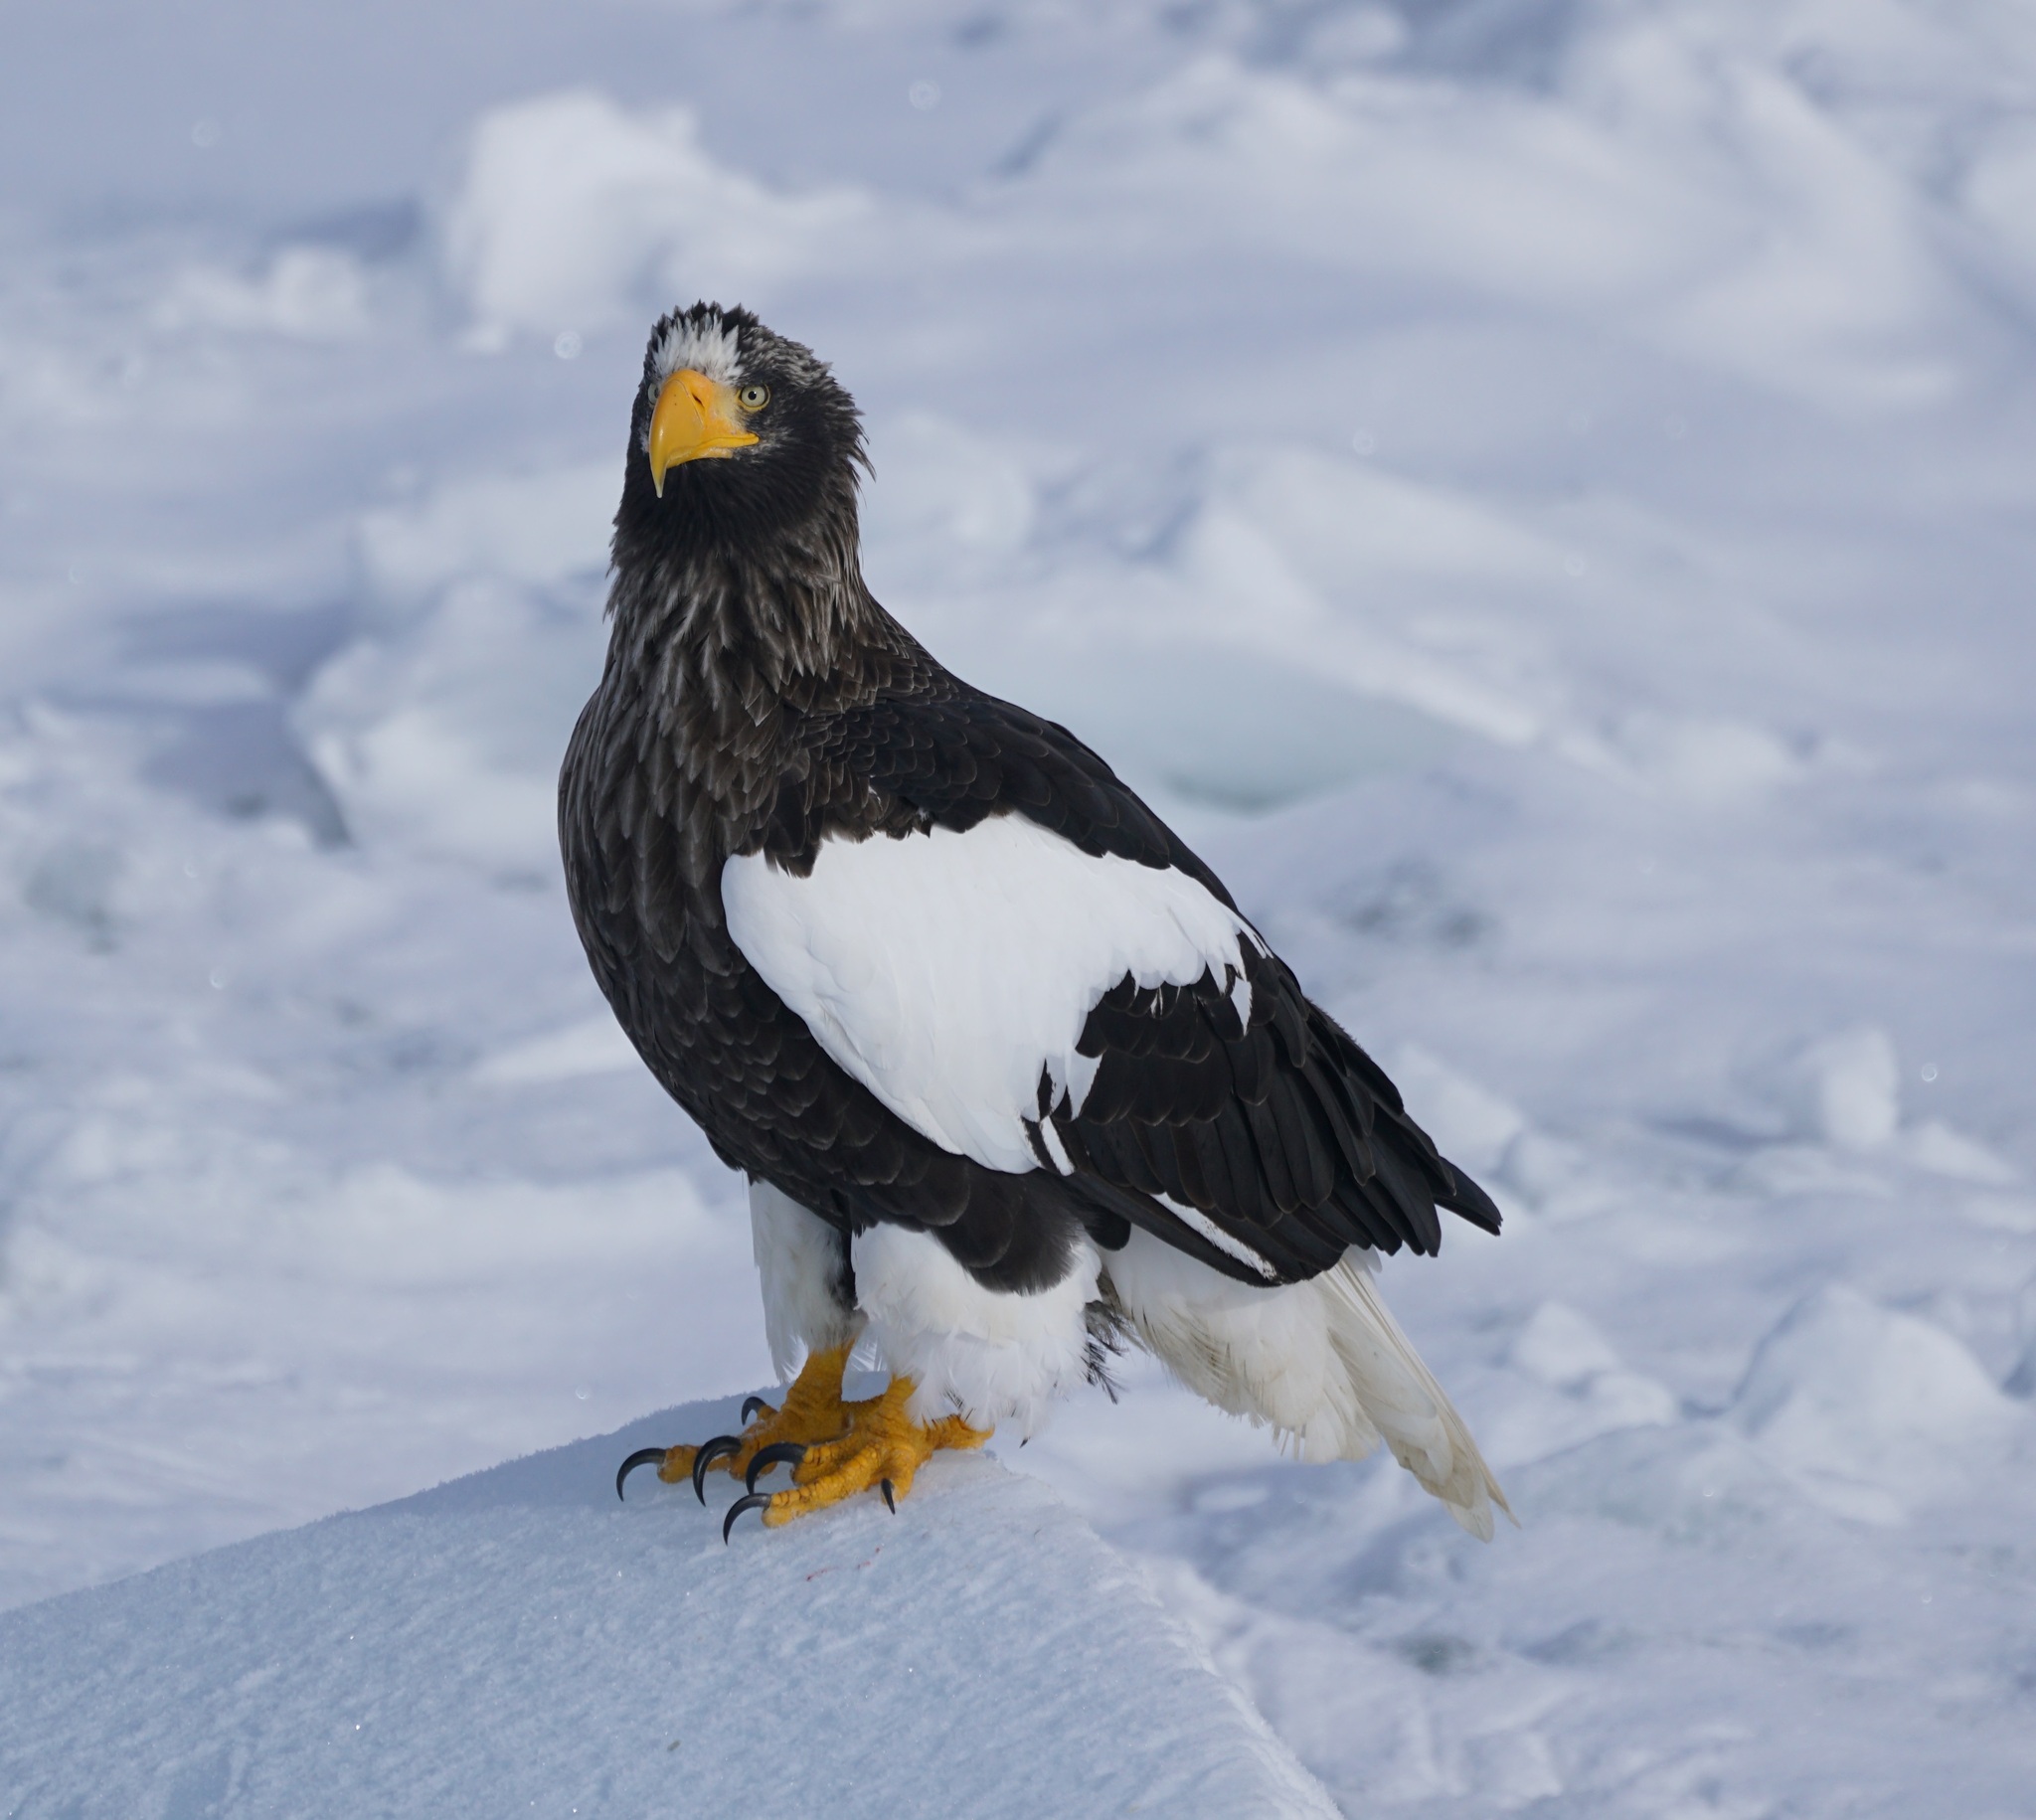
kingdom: Animalia
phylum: Chordata
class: Aves
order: Accipitriformes
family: Accipitridae
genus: Haliaeetus
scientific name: Haliaeetus pelagicus
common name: Steller's sea eagle
